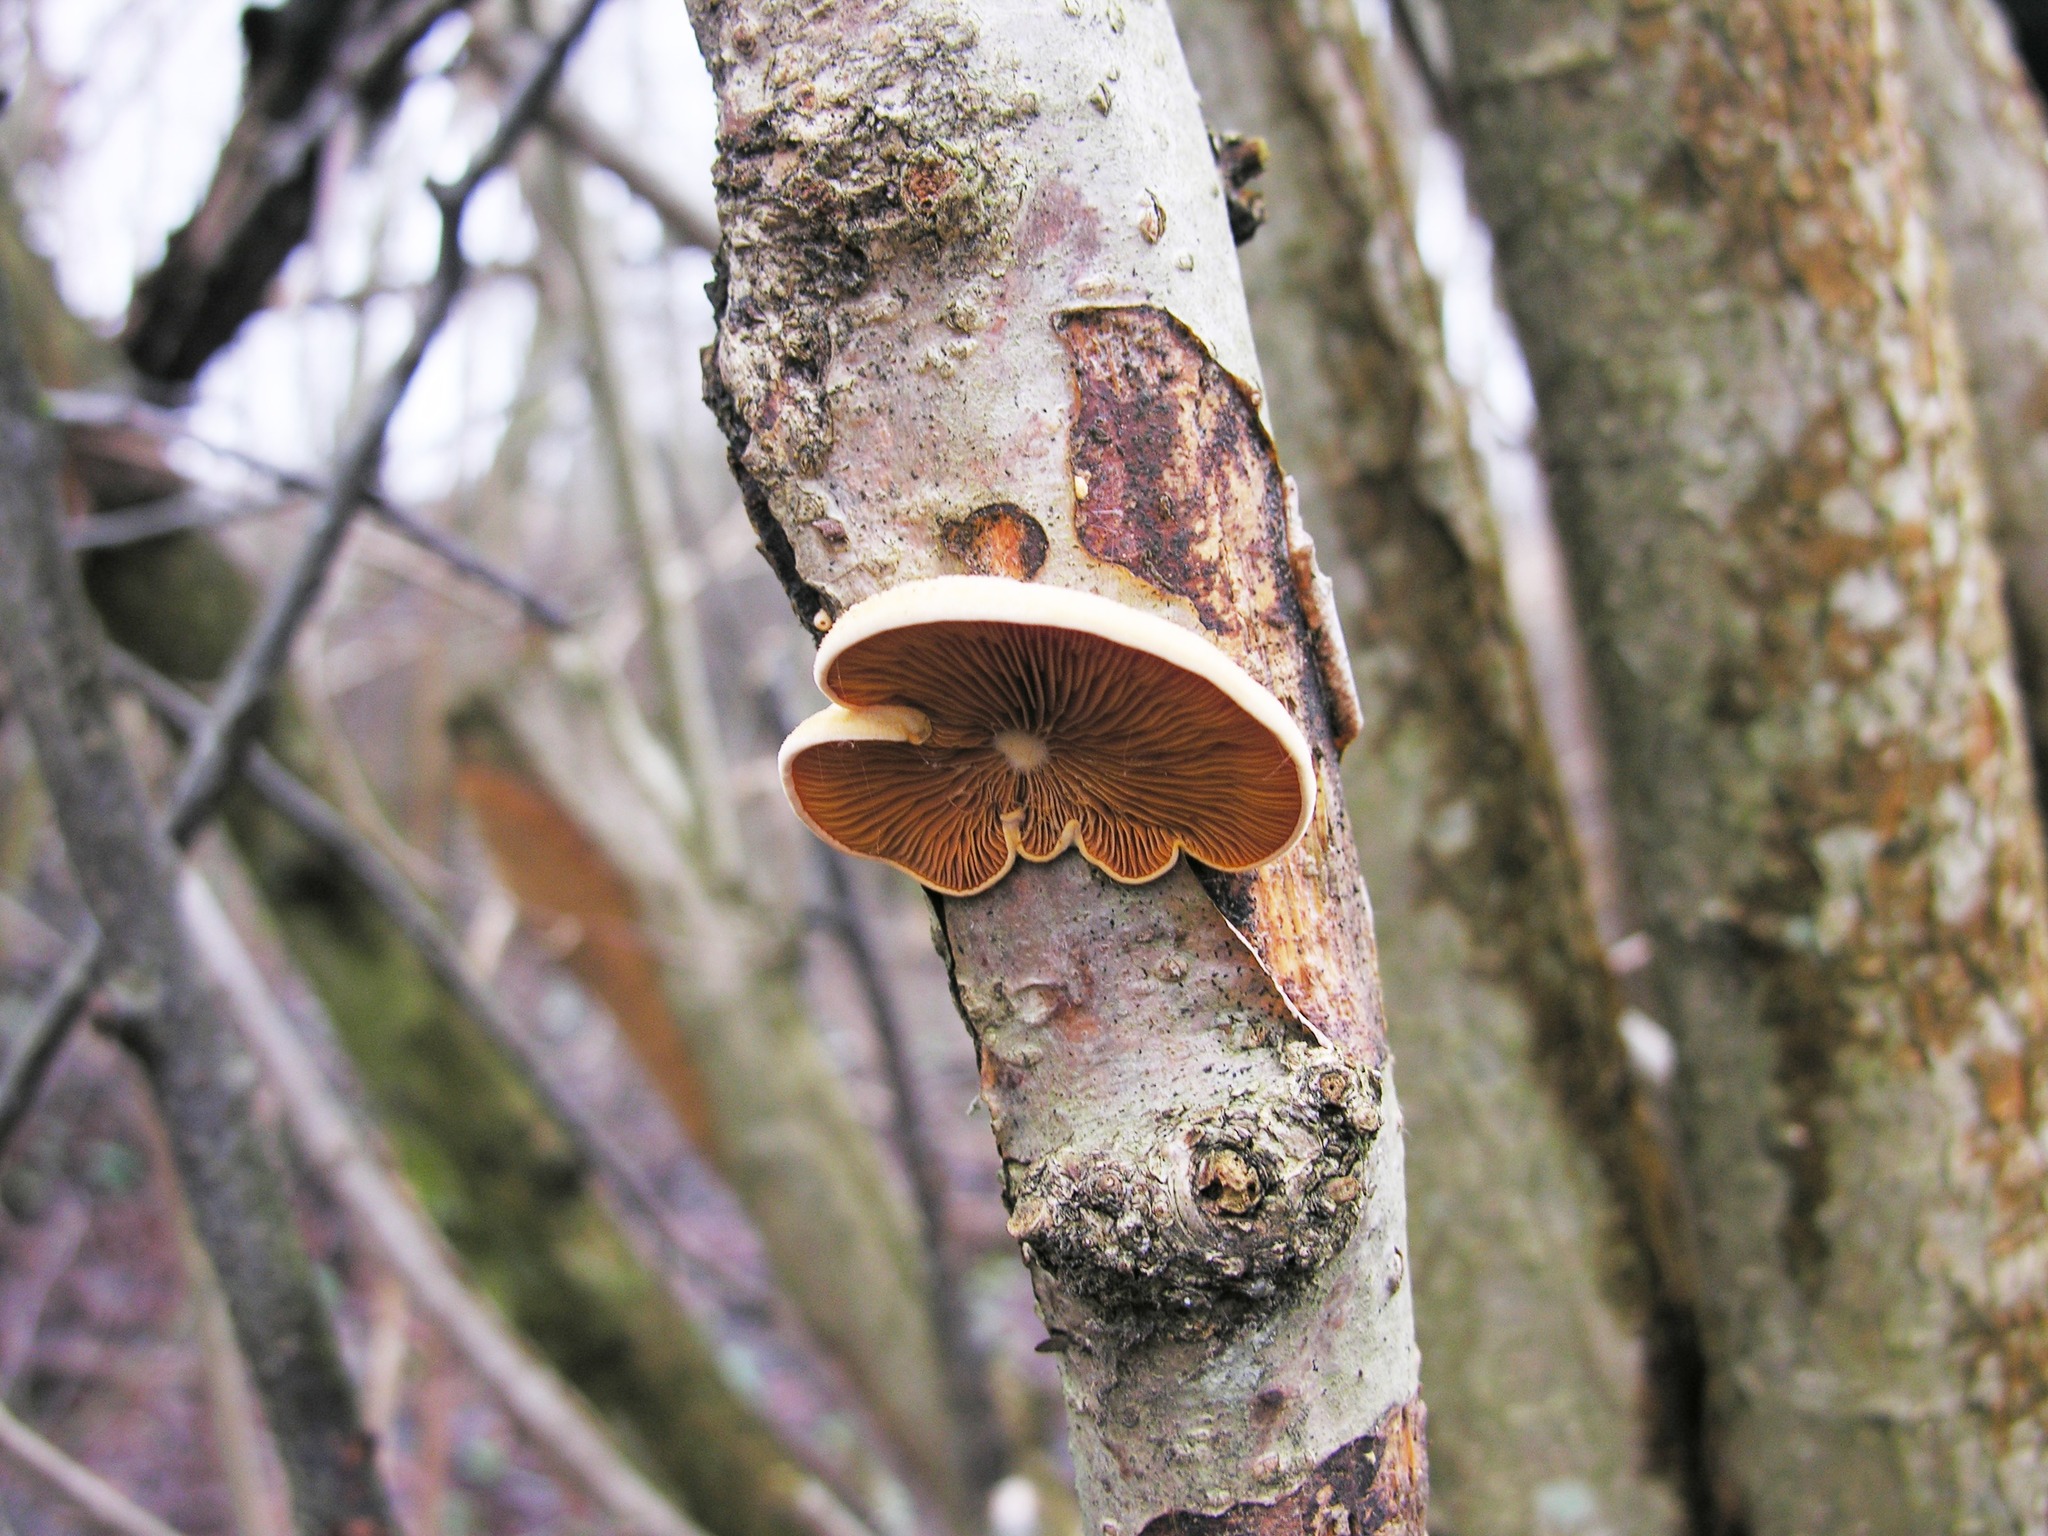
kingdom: Fungi
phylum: Basidiomycota
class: Agaricomycetes
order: Agaricales
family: Phyllotopsidaceae
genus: Phyllotopsis
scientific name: Phyllotopsis nidulans
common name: Orange mock oyster
